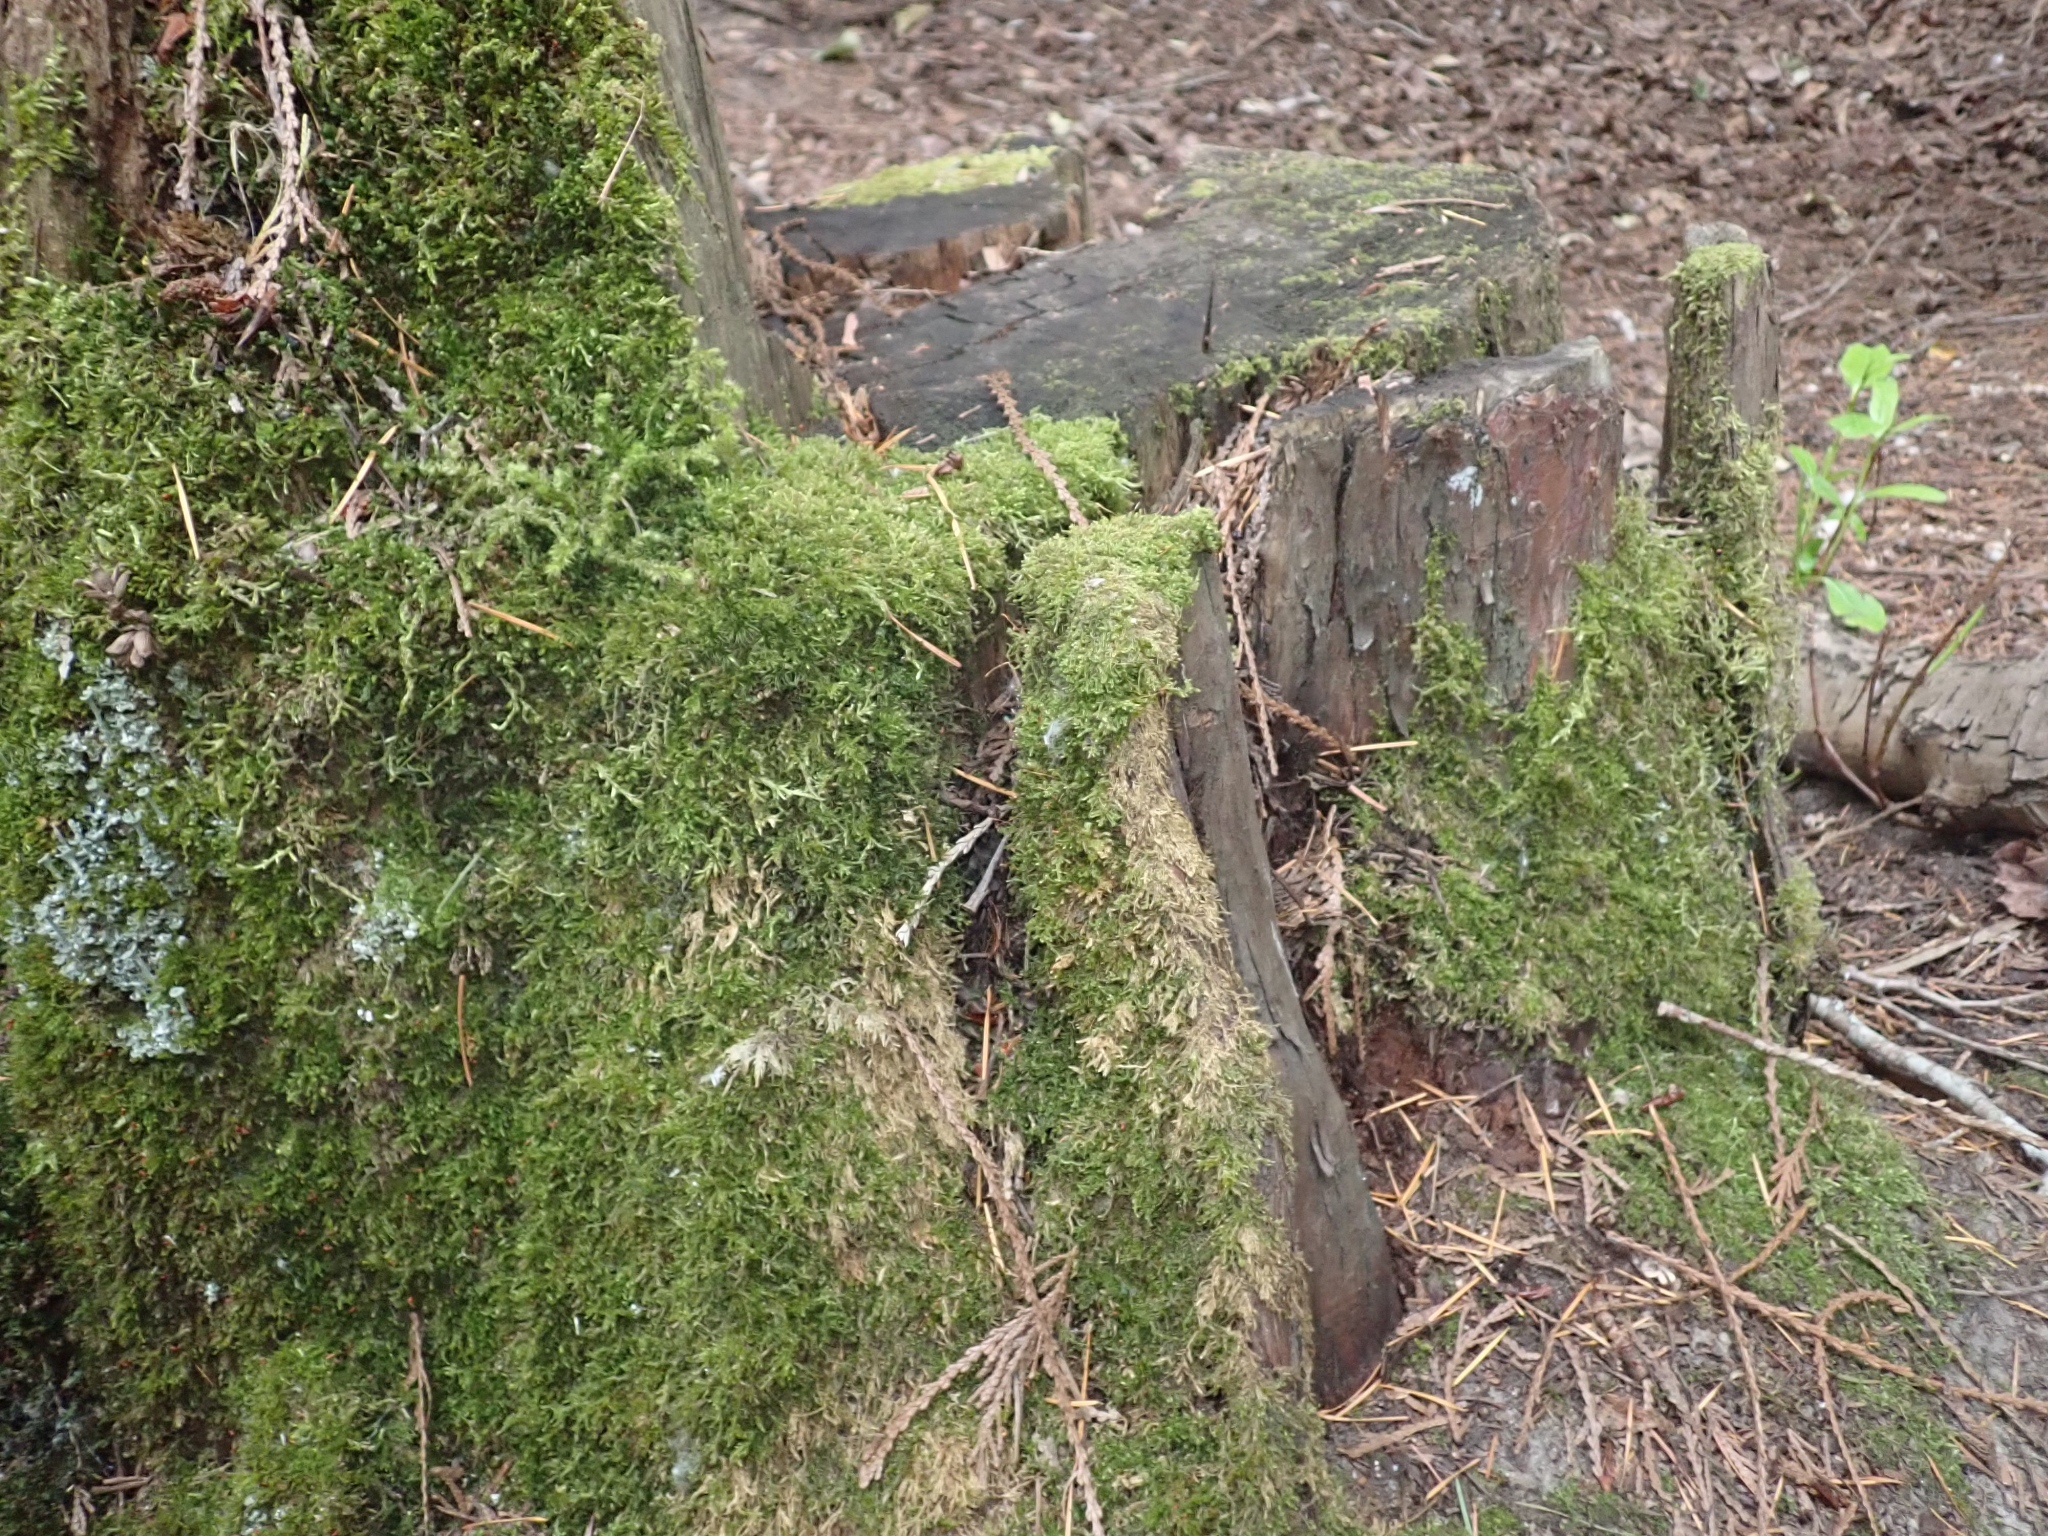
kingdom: Plantae
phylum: Bryophyta
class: Bryopsida
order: Hypnales
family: Hylocomiaceae
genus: Hylocomium
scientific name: Hylocomium splendens
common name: Stairstep moss
